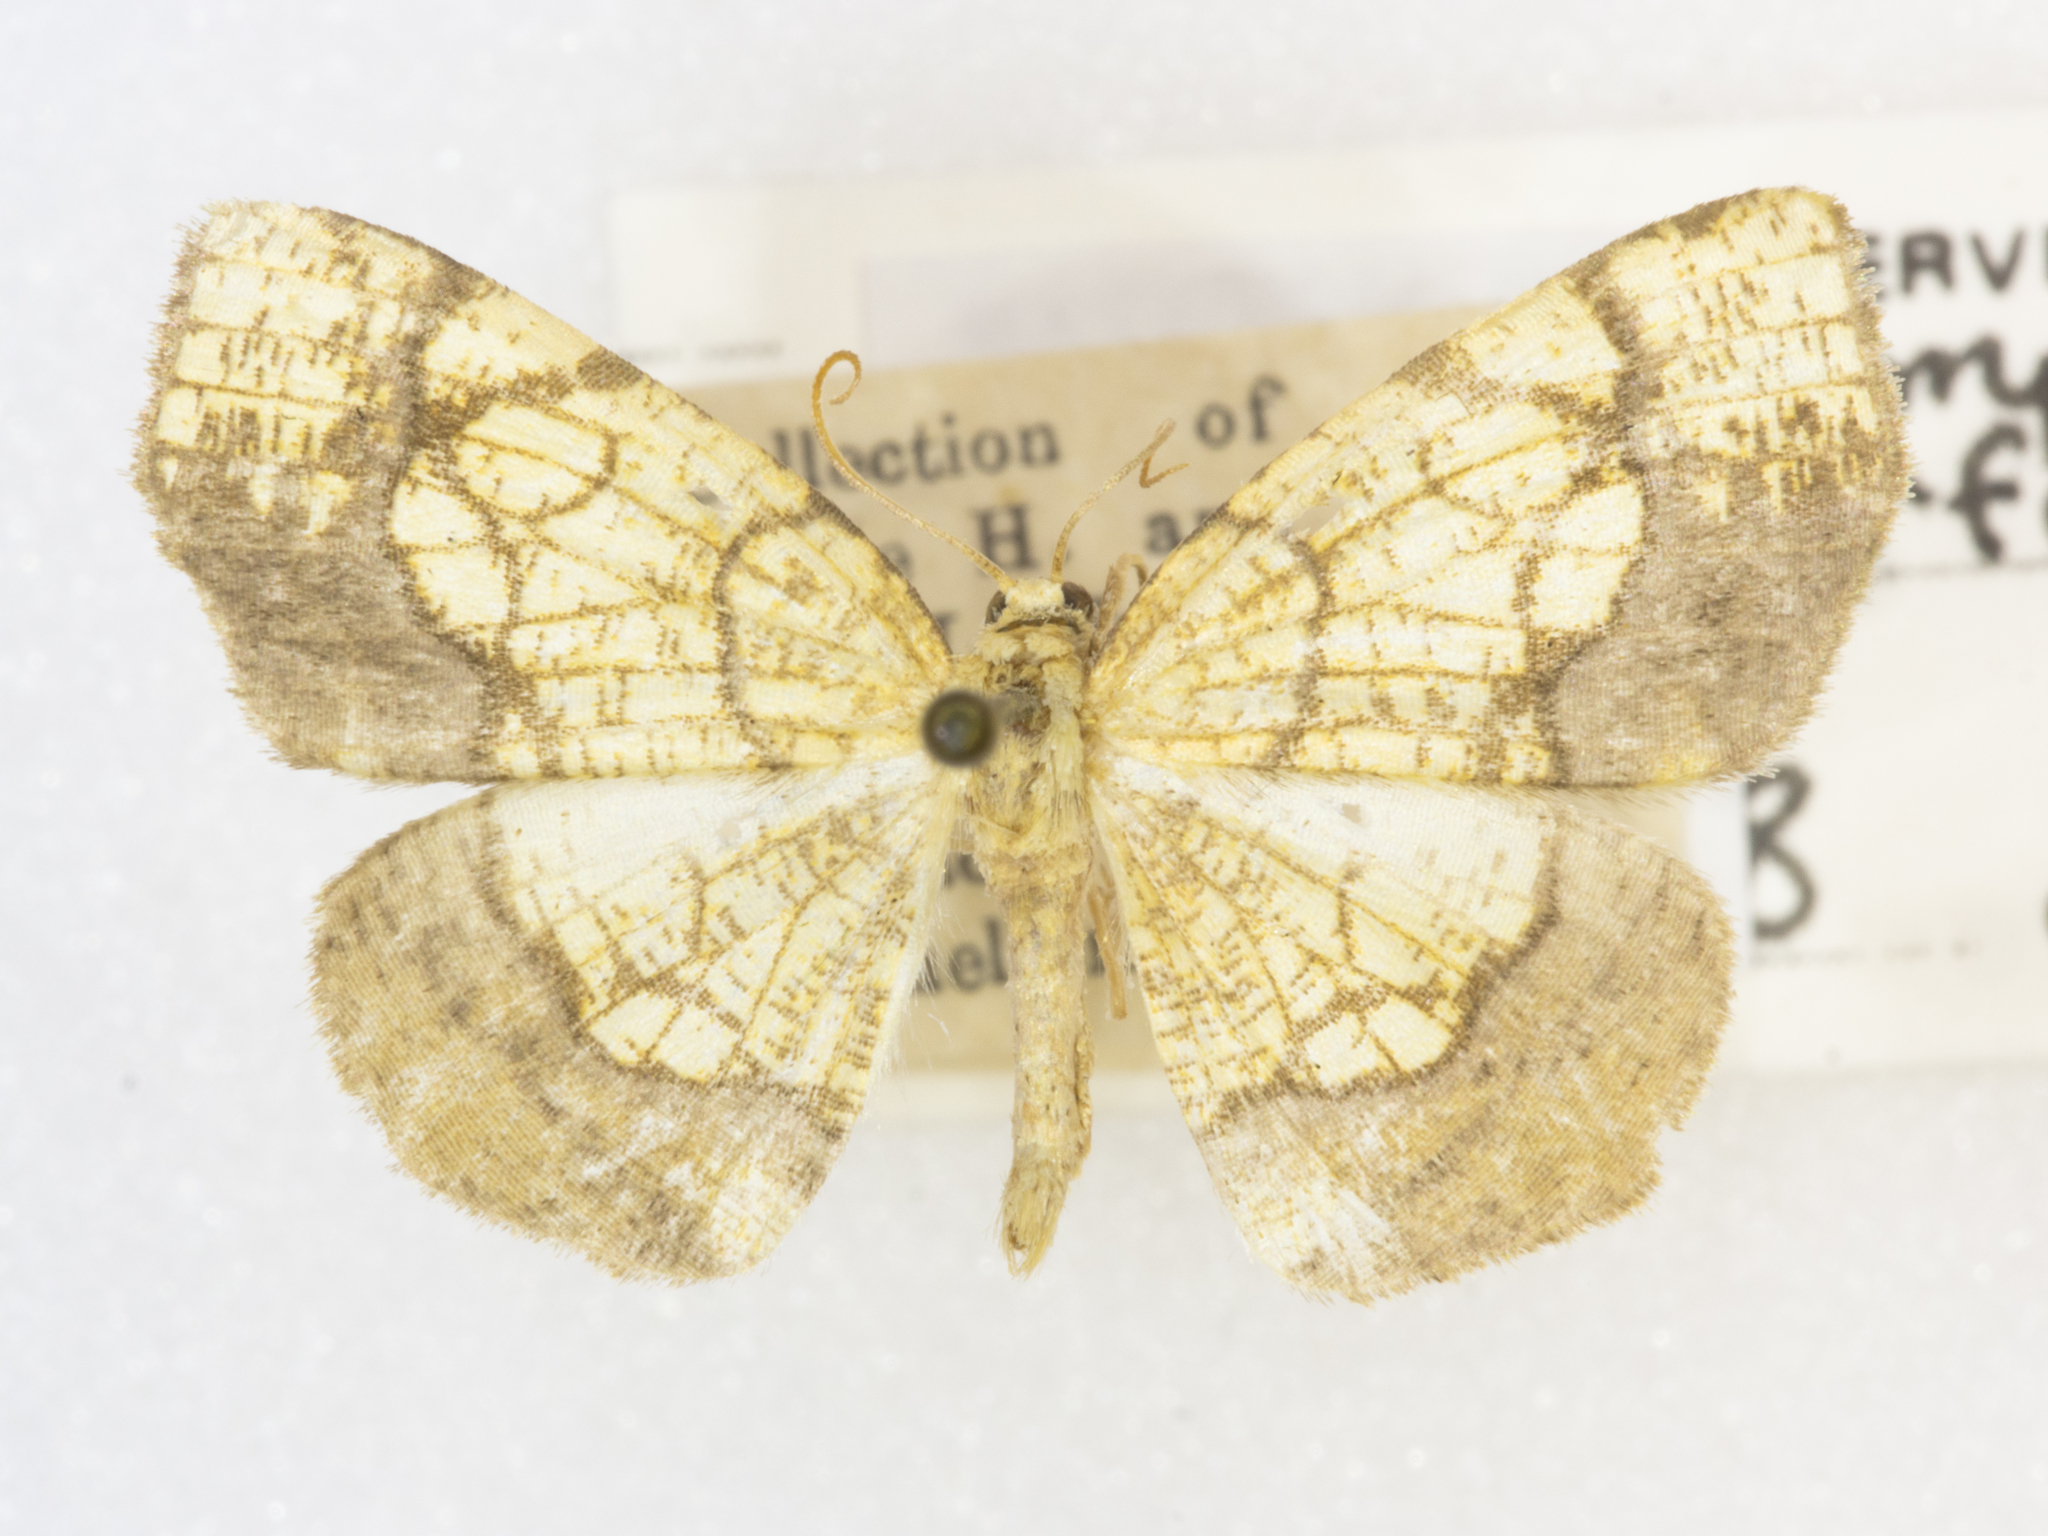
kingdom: Animalia
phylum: Arthropoda
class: Insecta
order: Lepidoptera
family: Geometridae
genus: Nematocampa
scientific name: Nematocampa resistaria
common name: Horned spanworm moth
